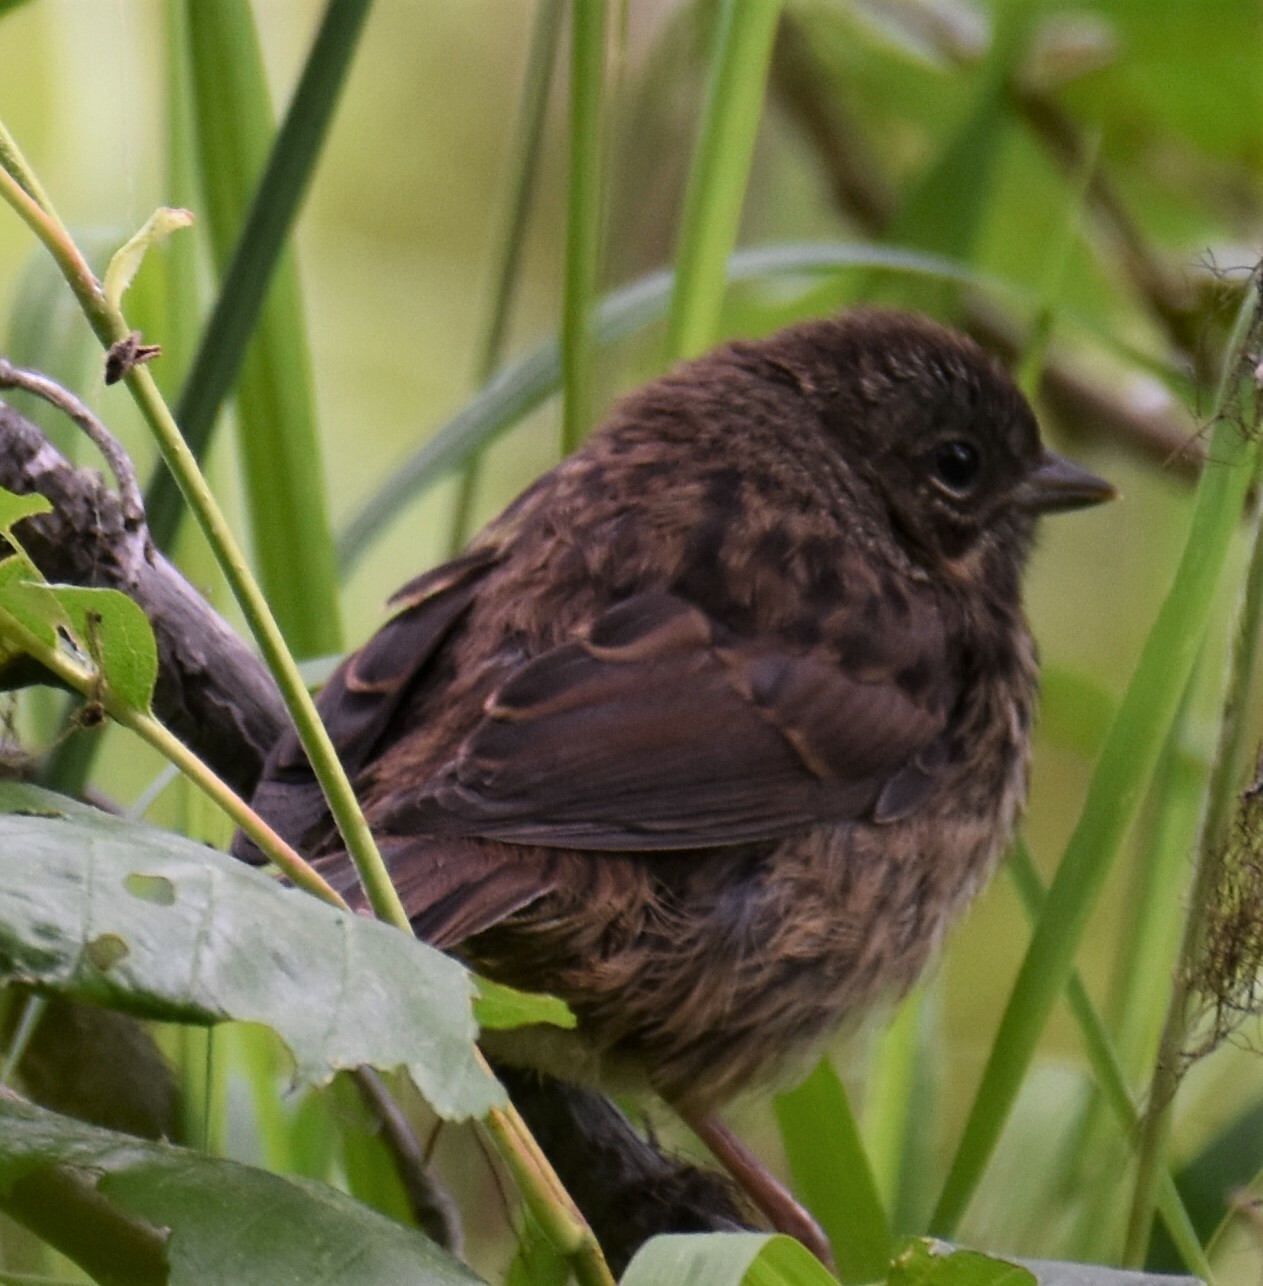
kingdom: Animalia
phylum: Chordata
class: Aves
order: Passeriformes
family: Passerellidae
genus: Melospiza
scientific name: Melospiza melodia
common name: Song sparrow
